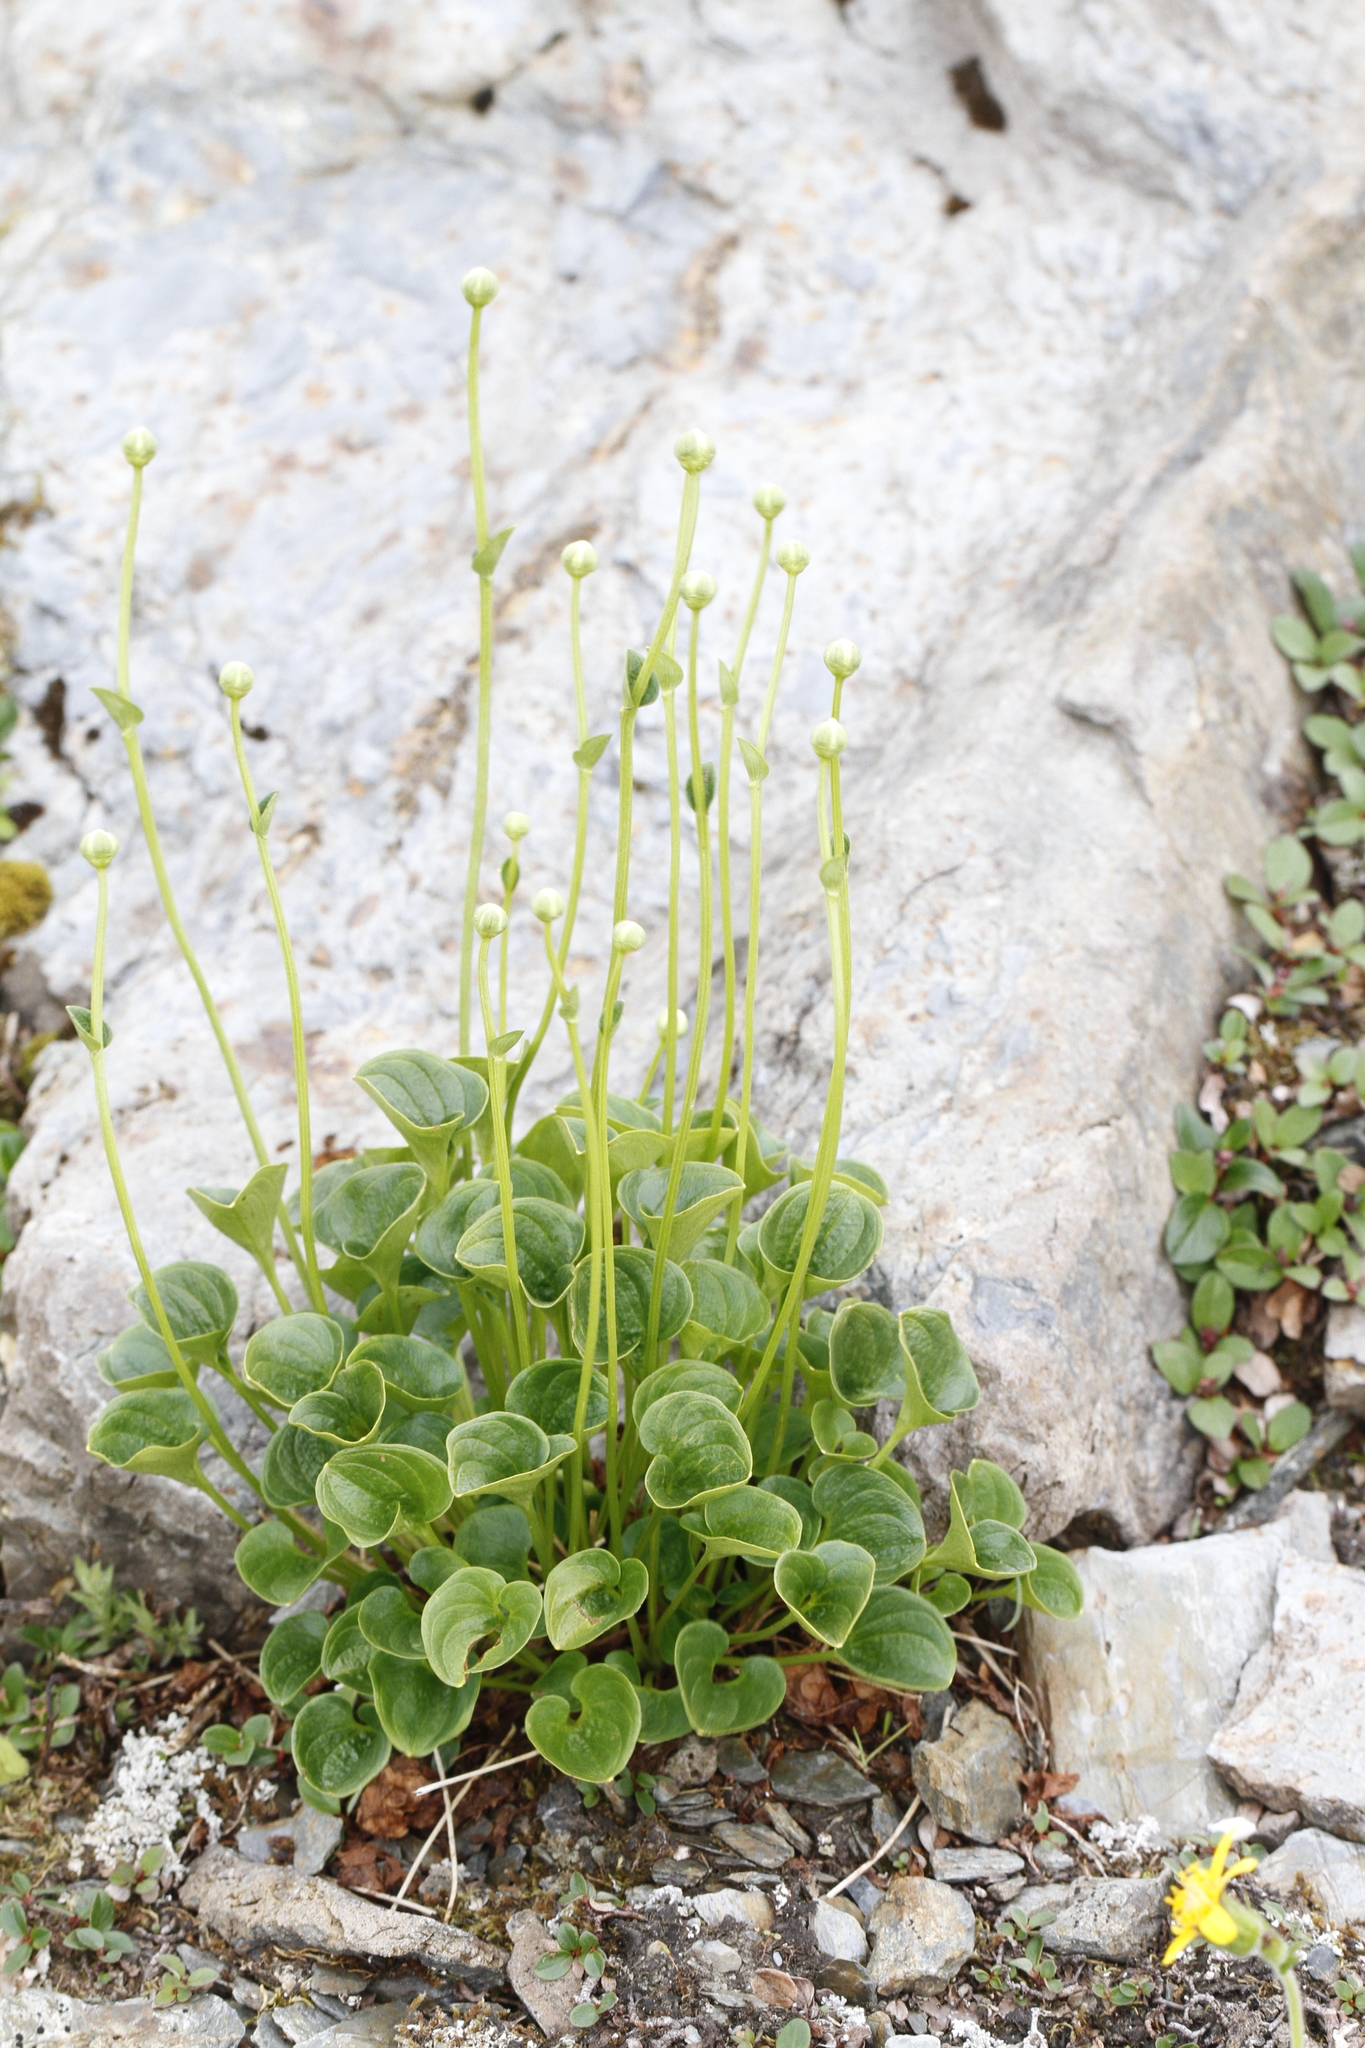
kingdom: Plantae
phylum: Tracheophyta
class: Magnoliopsida
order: Celastrales
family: Parnassiaceae
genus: Parnassia
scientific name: Parnassia fimbriata
